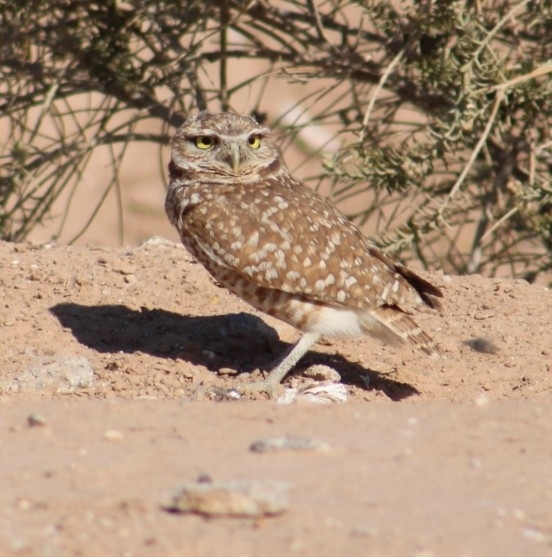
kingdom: Animalia
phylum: Chordata
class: Aves
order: Strigiformes
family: Strigidae
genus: Athene
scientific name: Athene cunicularia
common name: Burrowing owl
